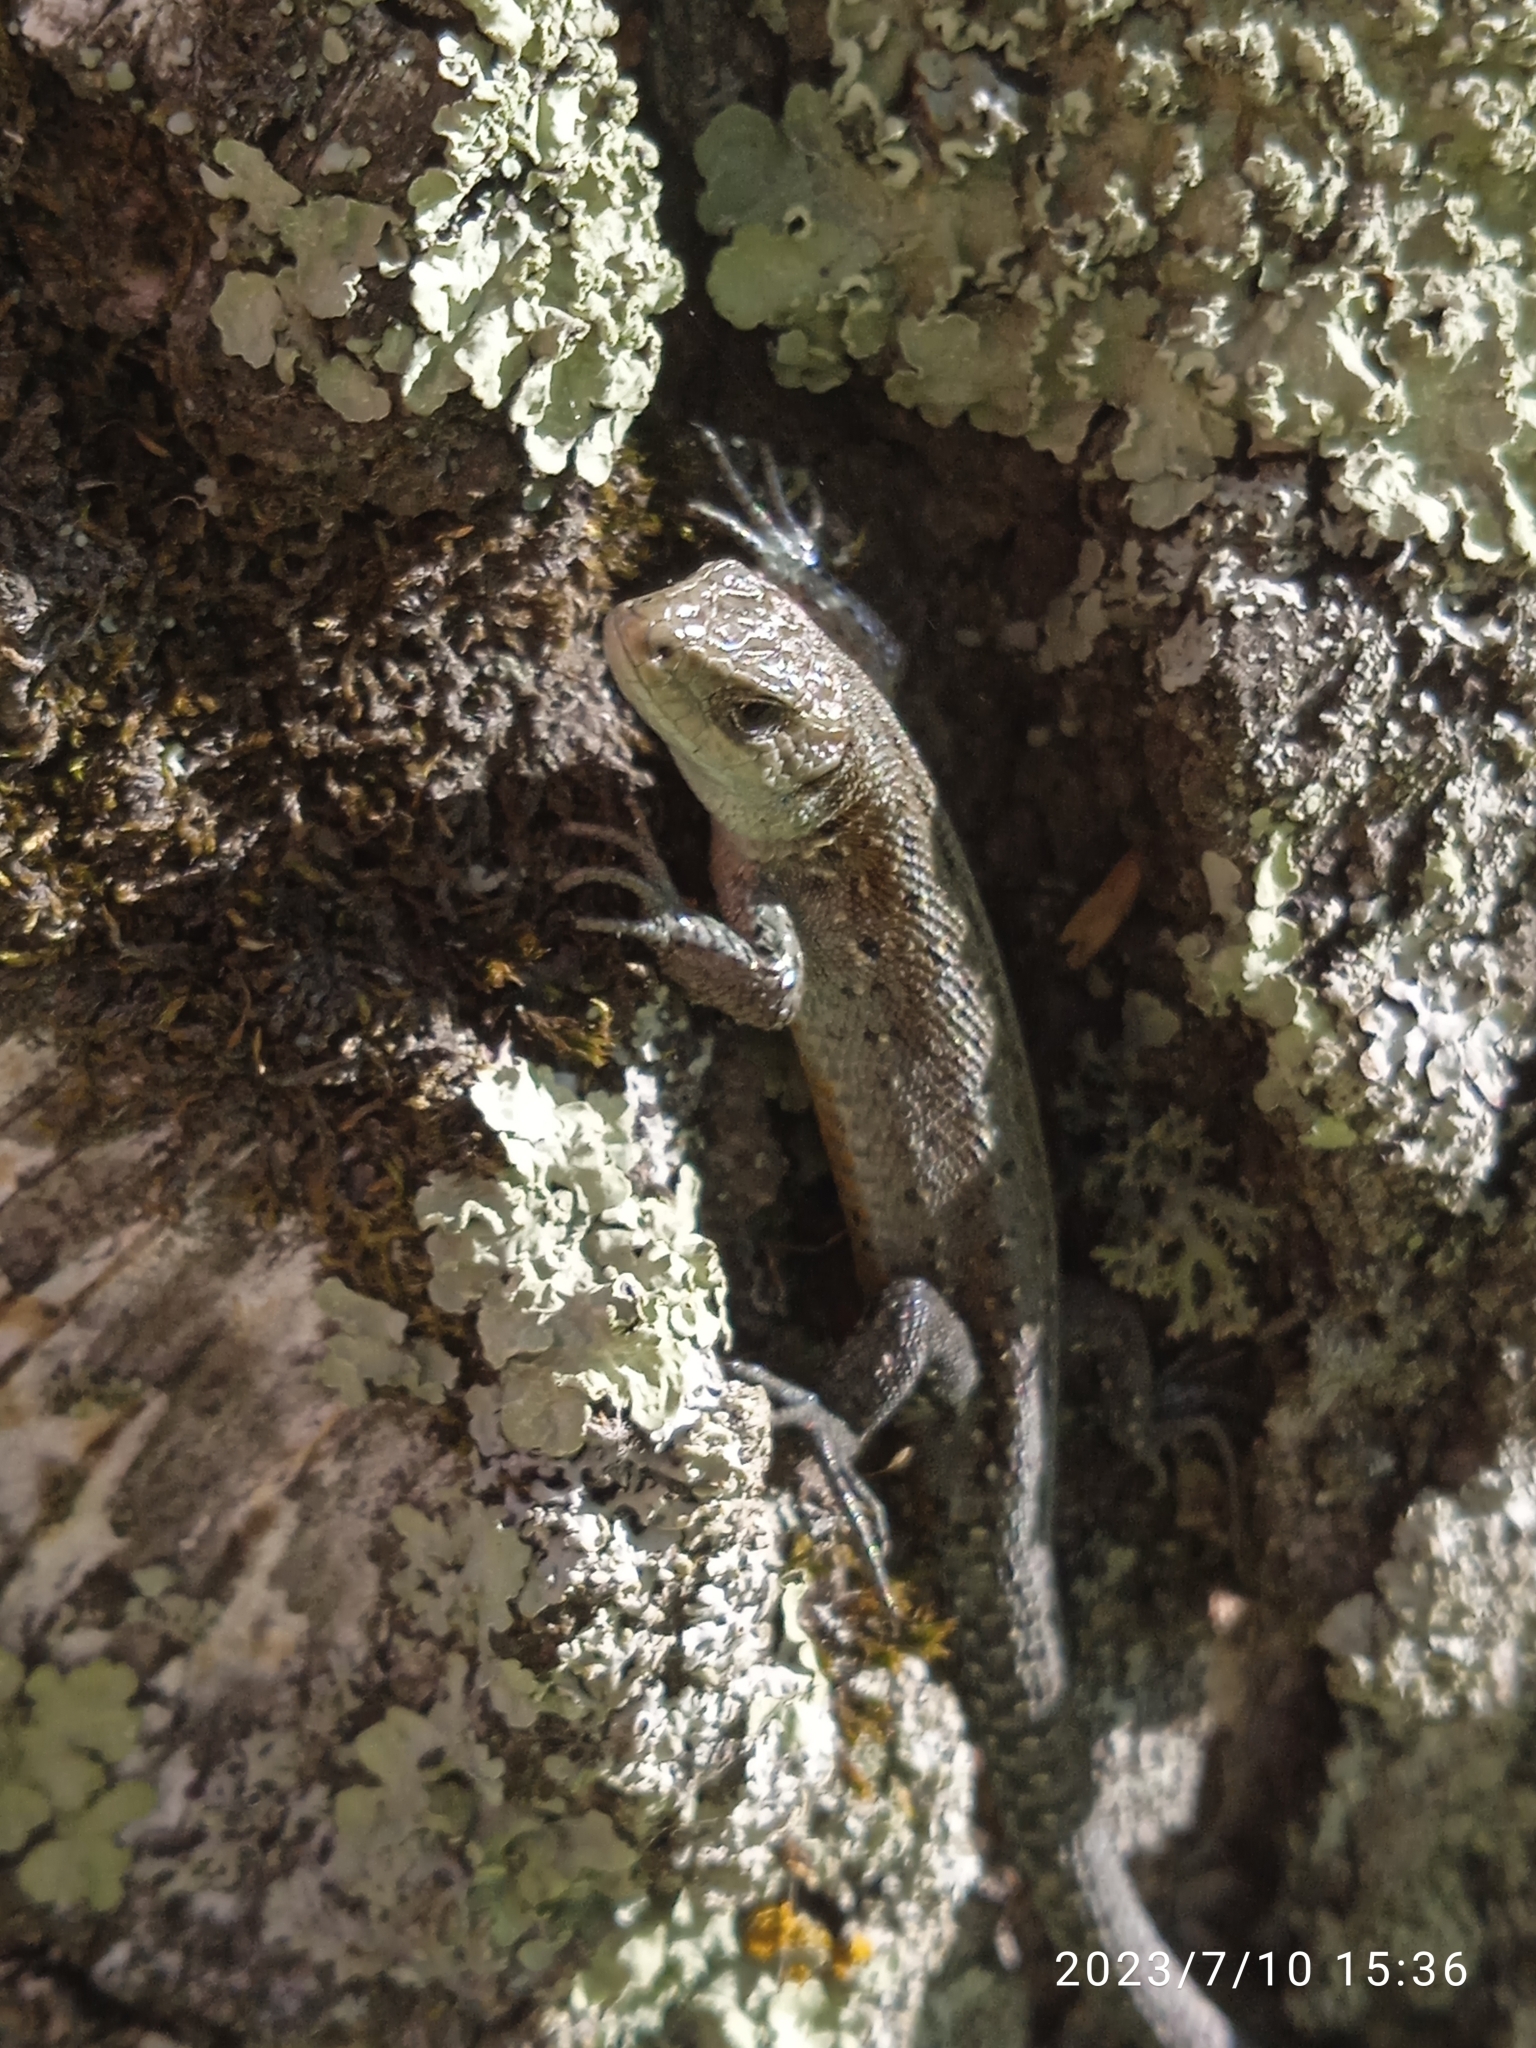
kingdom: Animalia
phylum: Chordata
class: Squamata
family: Lacertidae
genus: Zootoca
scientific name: Zootoca vivipara
